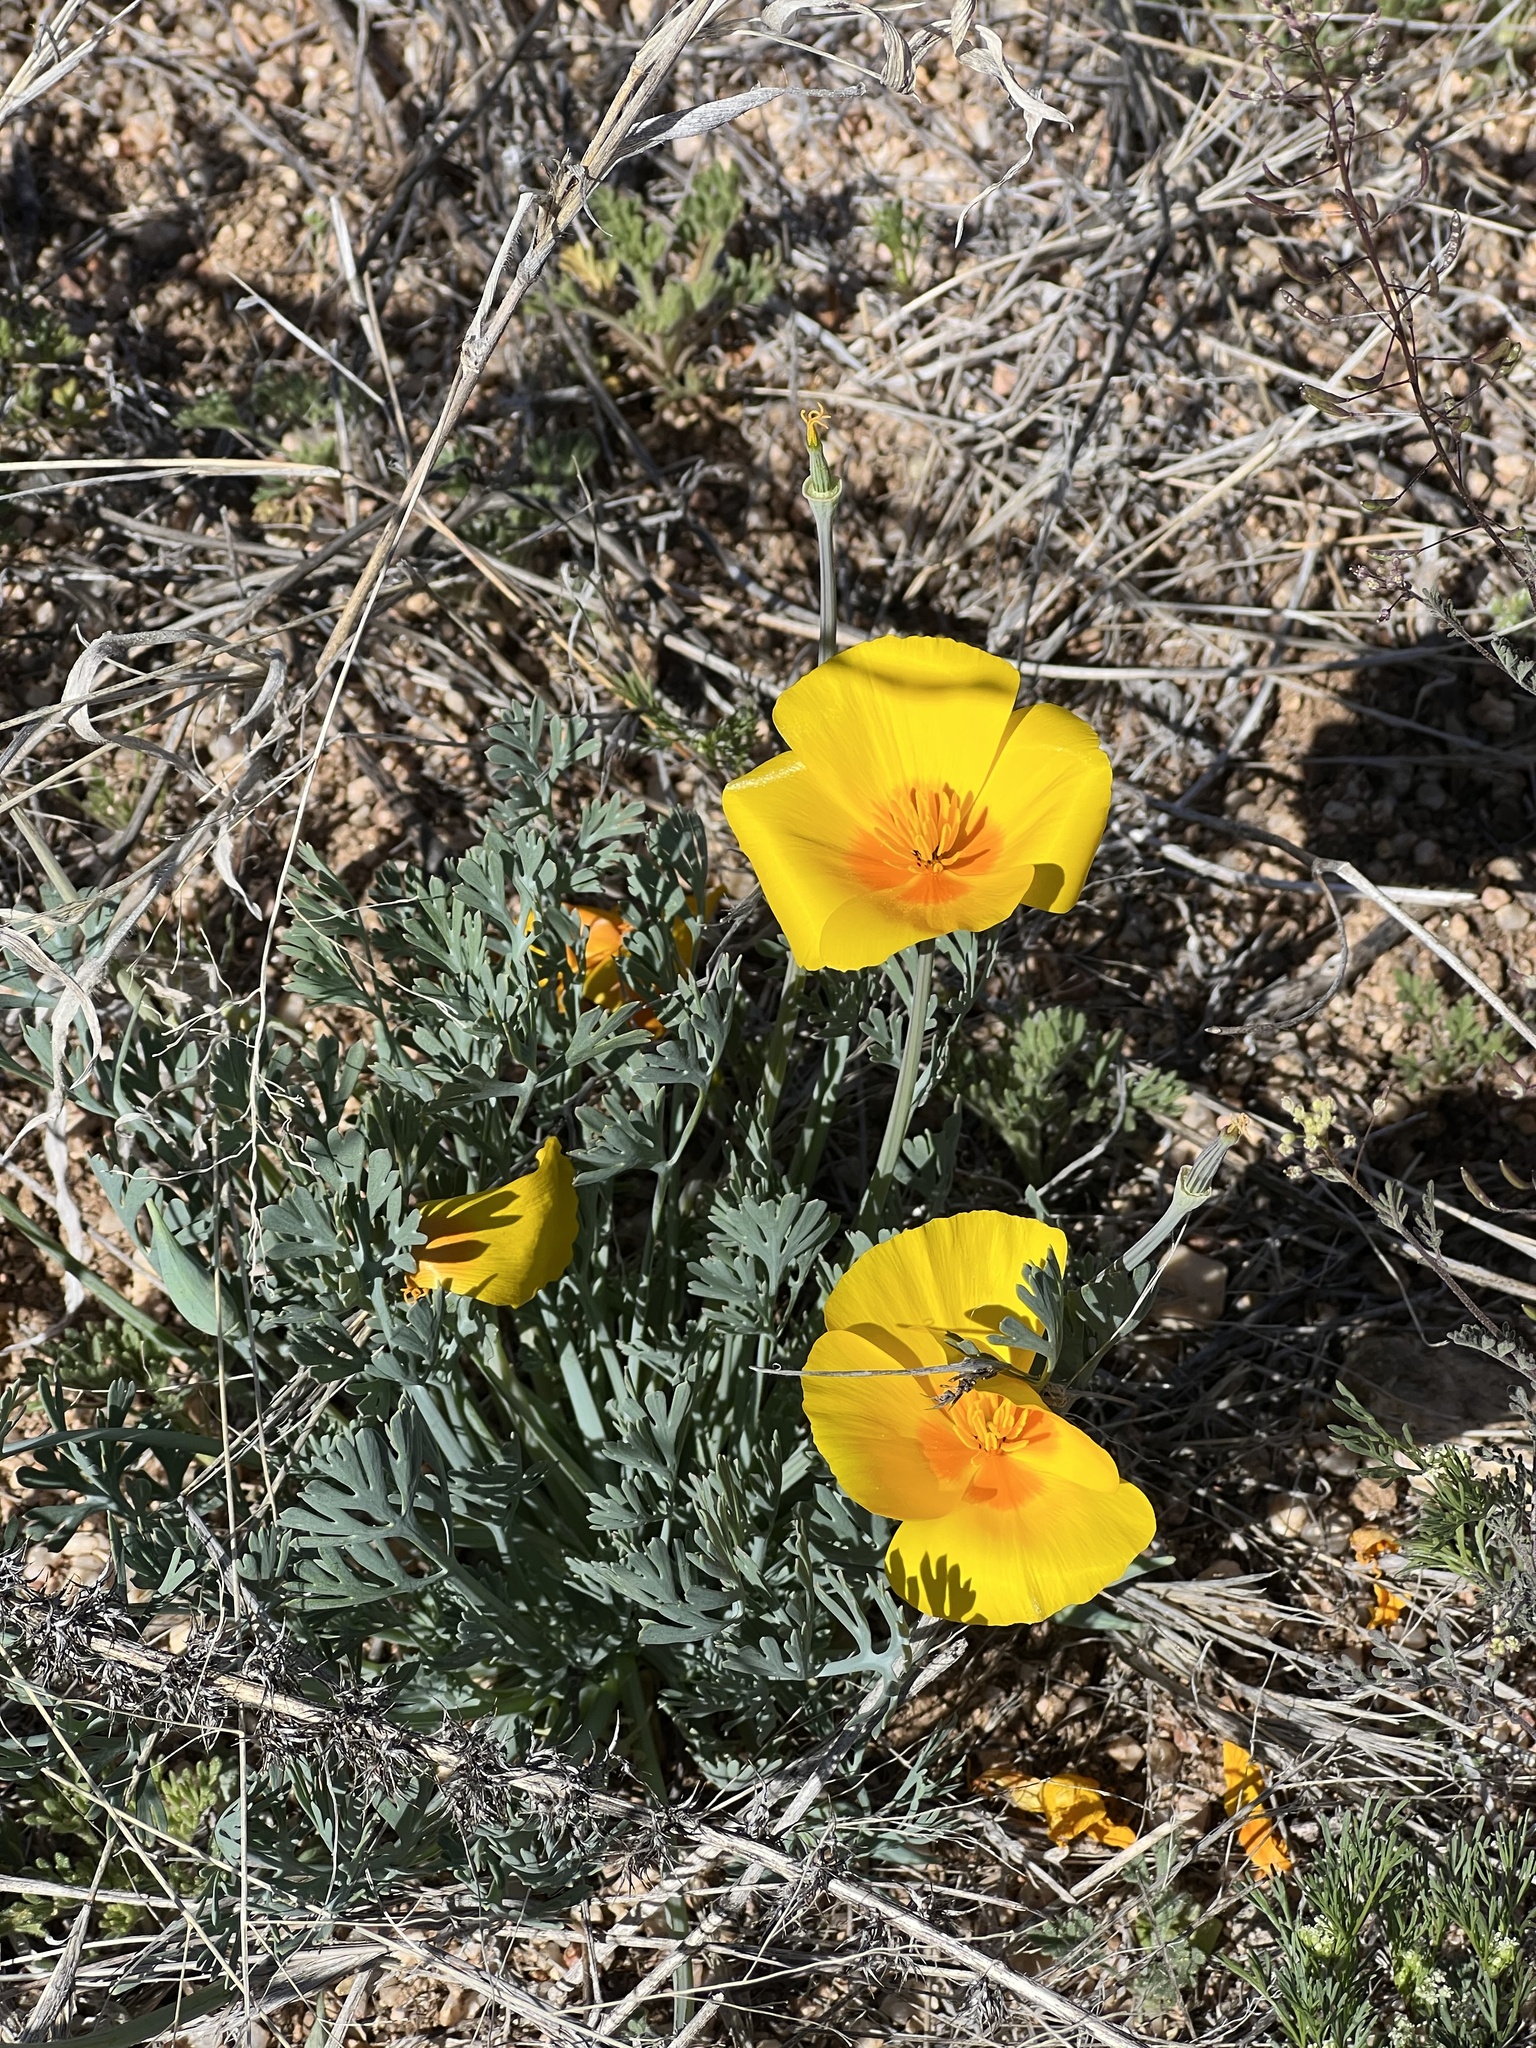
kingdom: Plantae
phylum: Tracheophyta
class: Magnoliopsida
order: Ranunculales
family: Papaveraceae
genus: Eschscholzia
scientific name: Eschscholzia californica
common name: California poppy
